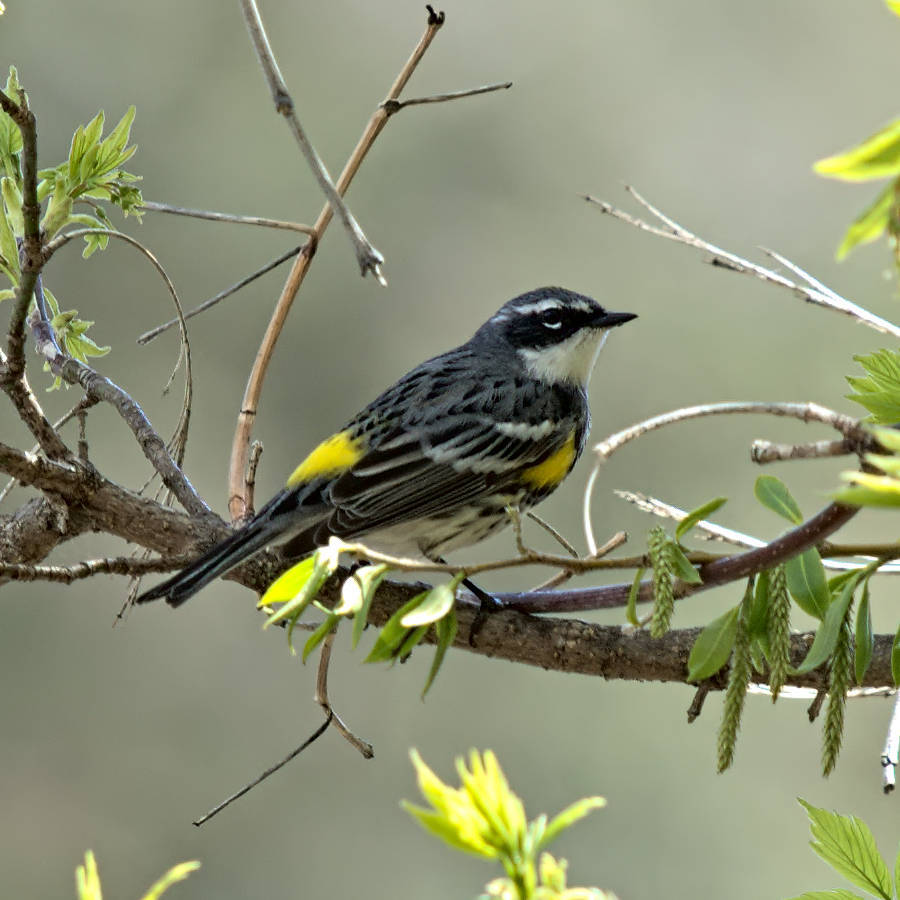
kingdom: Animalia
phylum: Chordata
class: Aves
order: Passeriformes
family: Parulidae
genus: Setophaga
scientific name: Setophaga coronata
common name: Myrtle warbler
